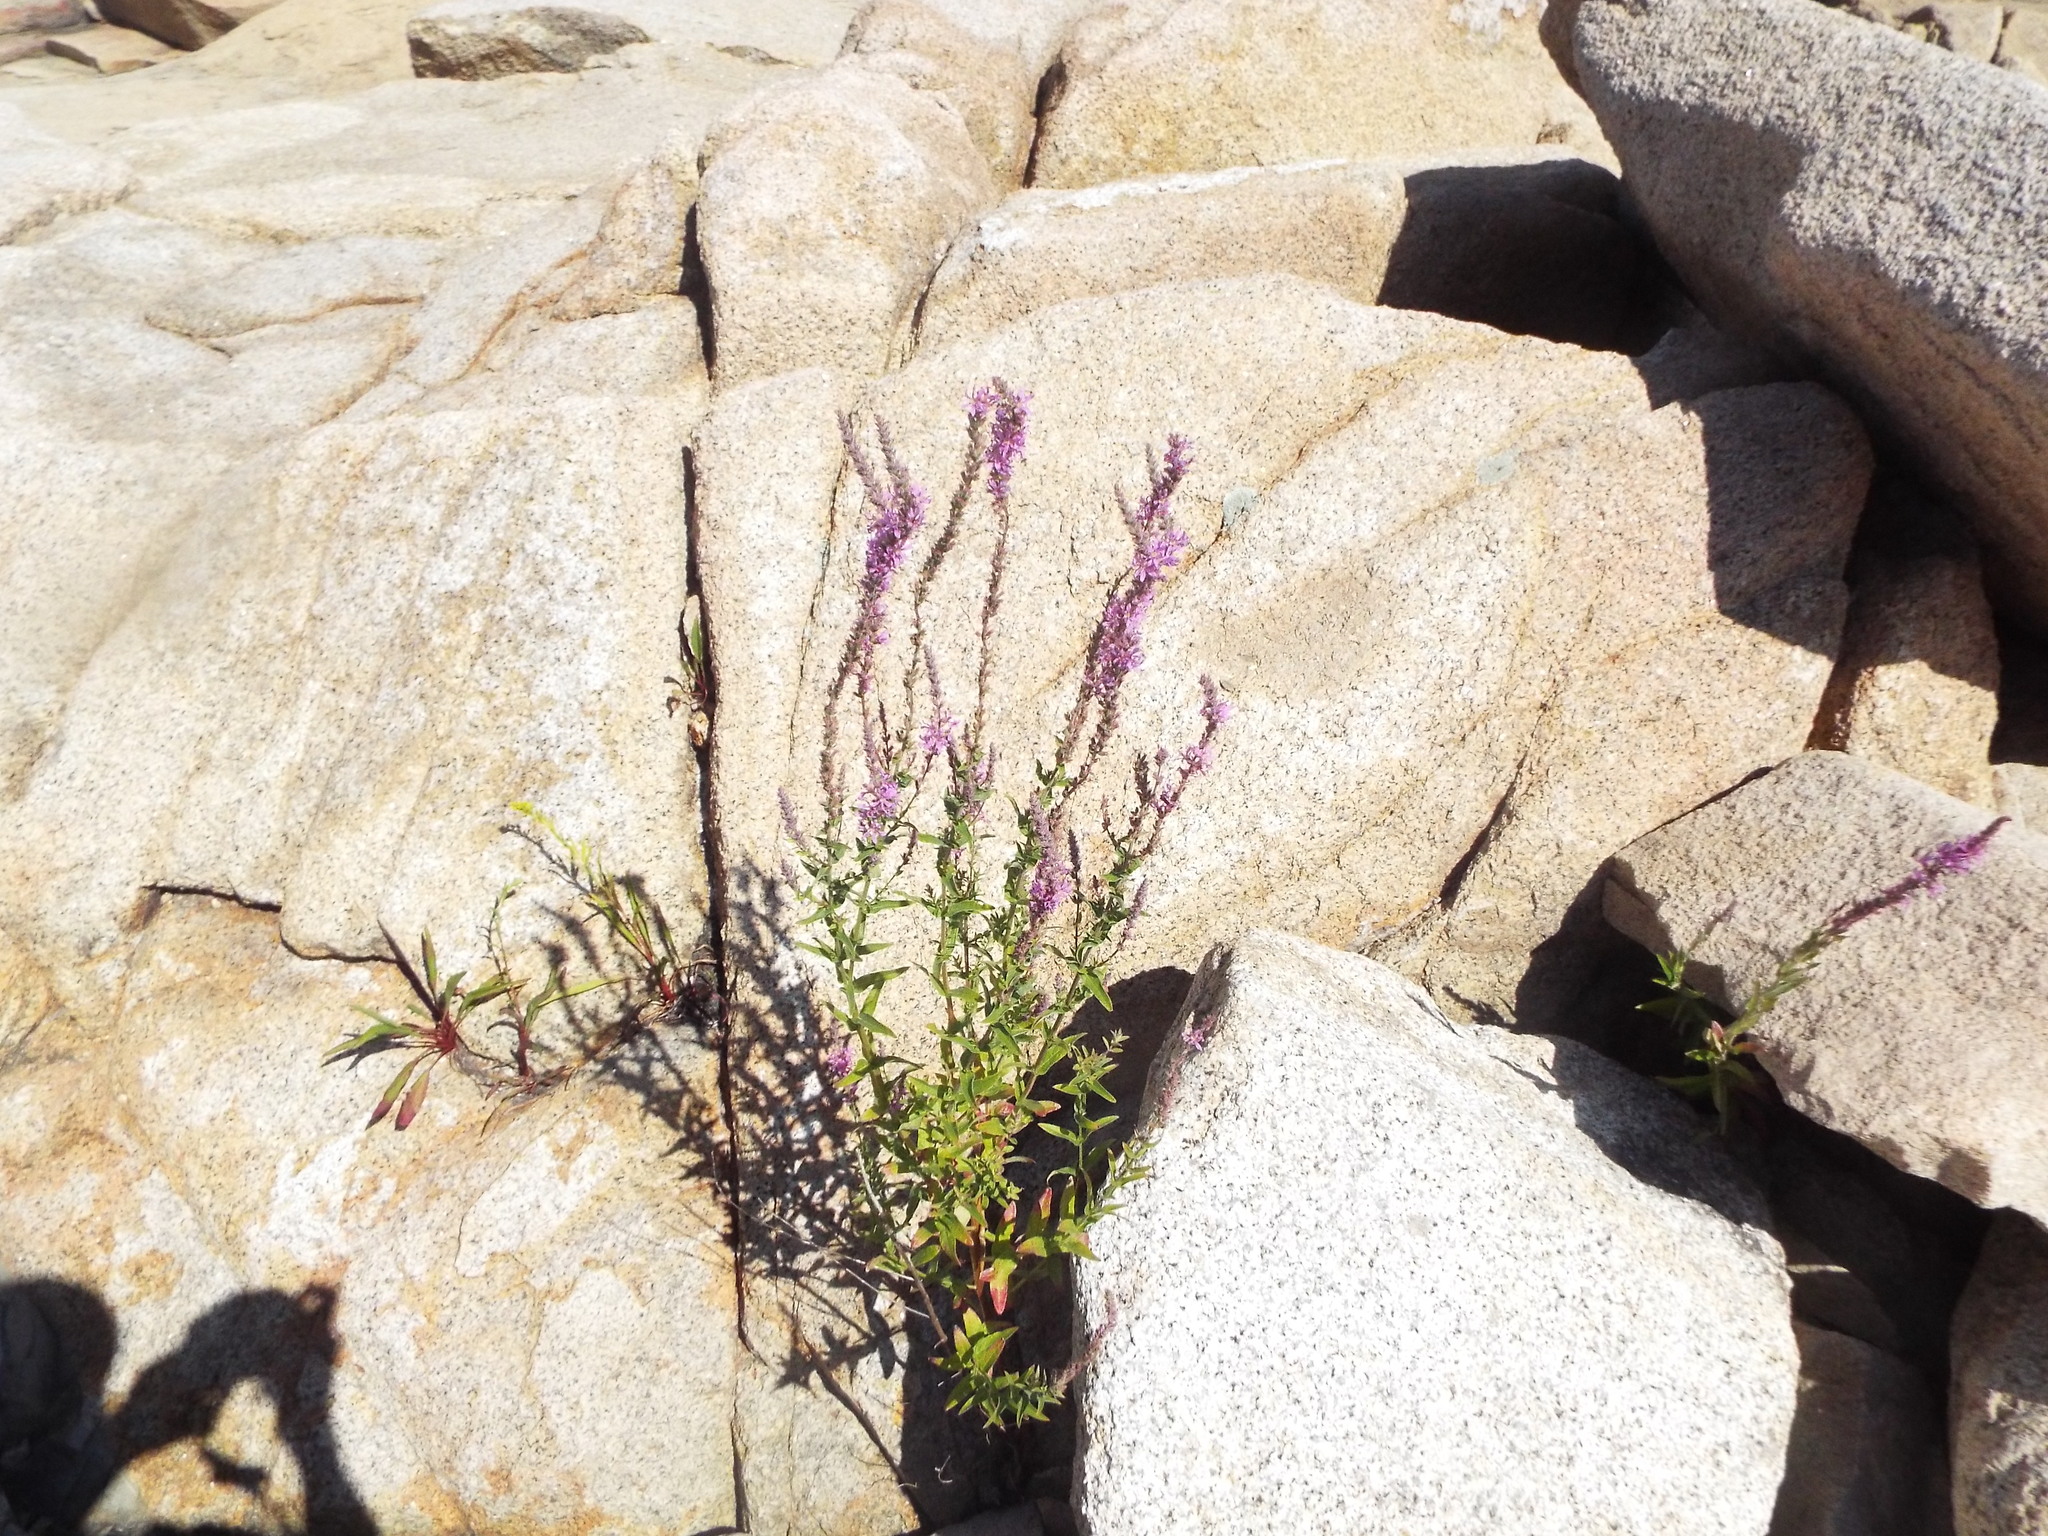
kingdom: Plantae
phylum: Tracheophyta
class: Magnoliopsida
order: Myrtales
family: Lythraceae
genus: Lythrum
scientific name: Lythrum salicaria
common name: Purple loosestrife
